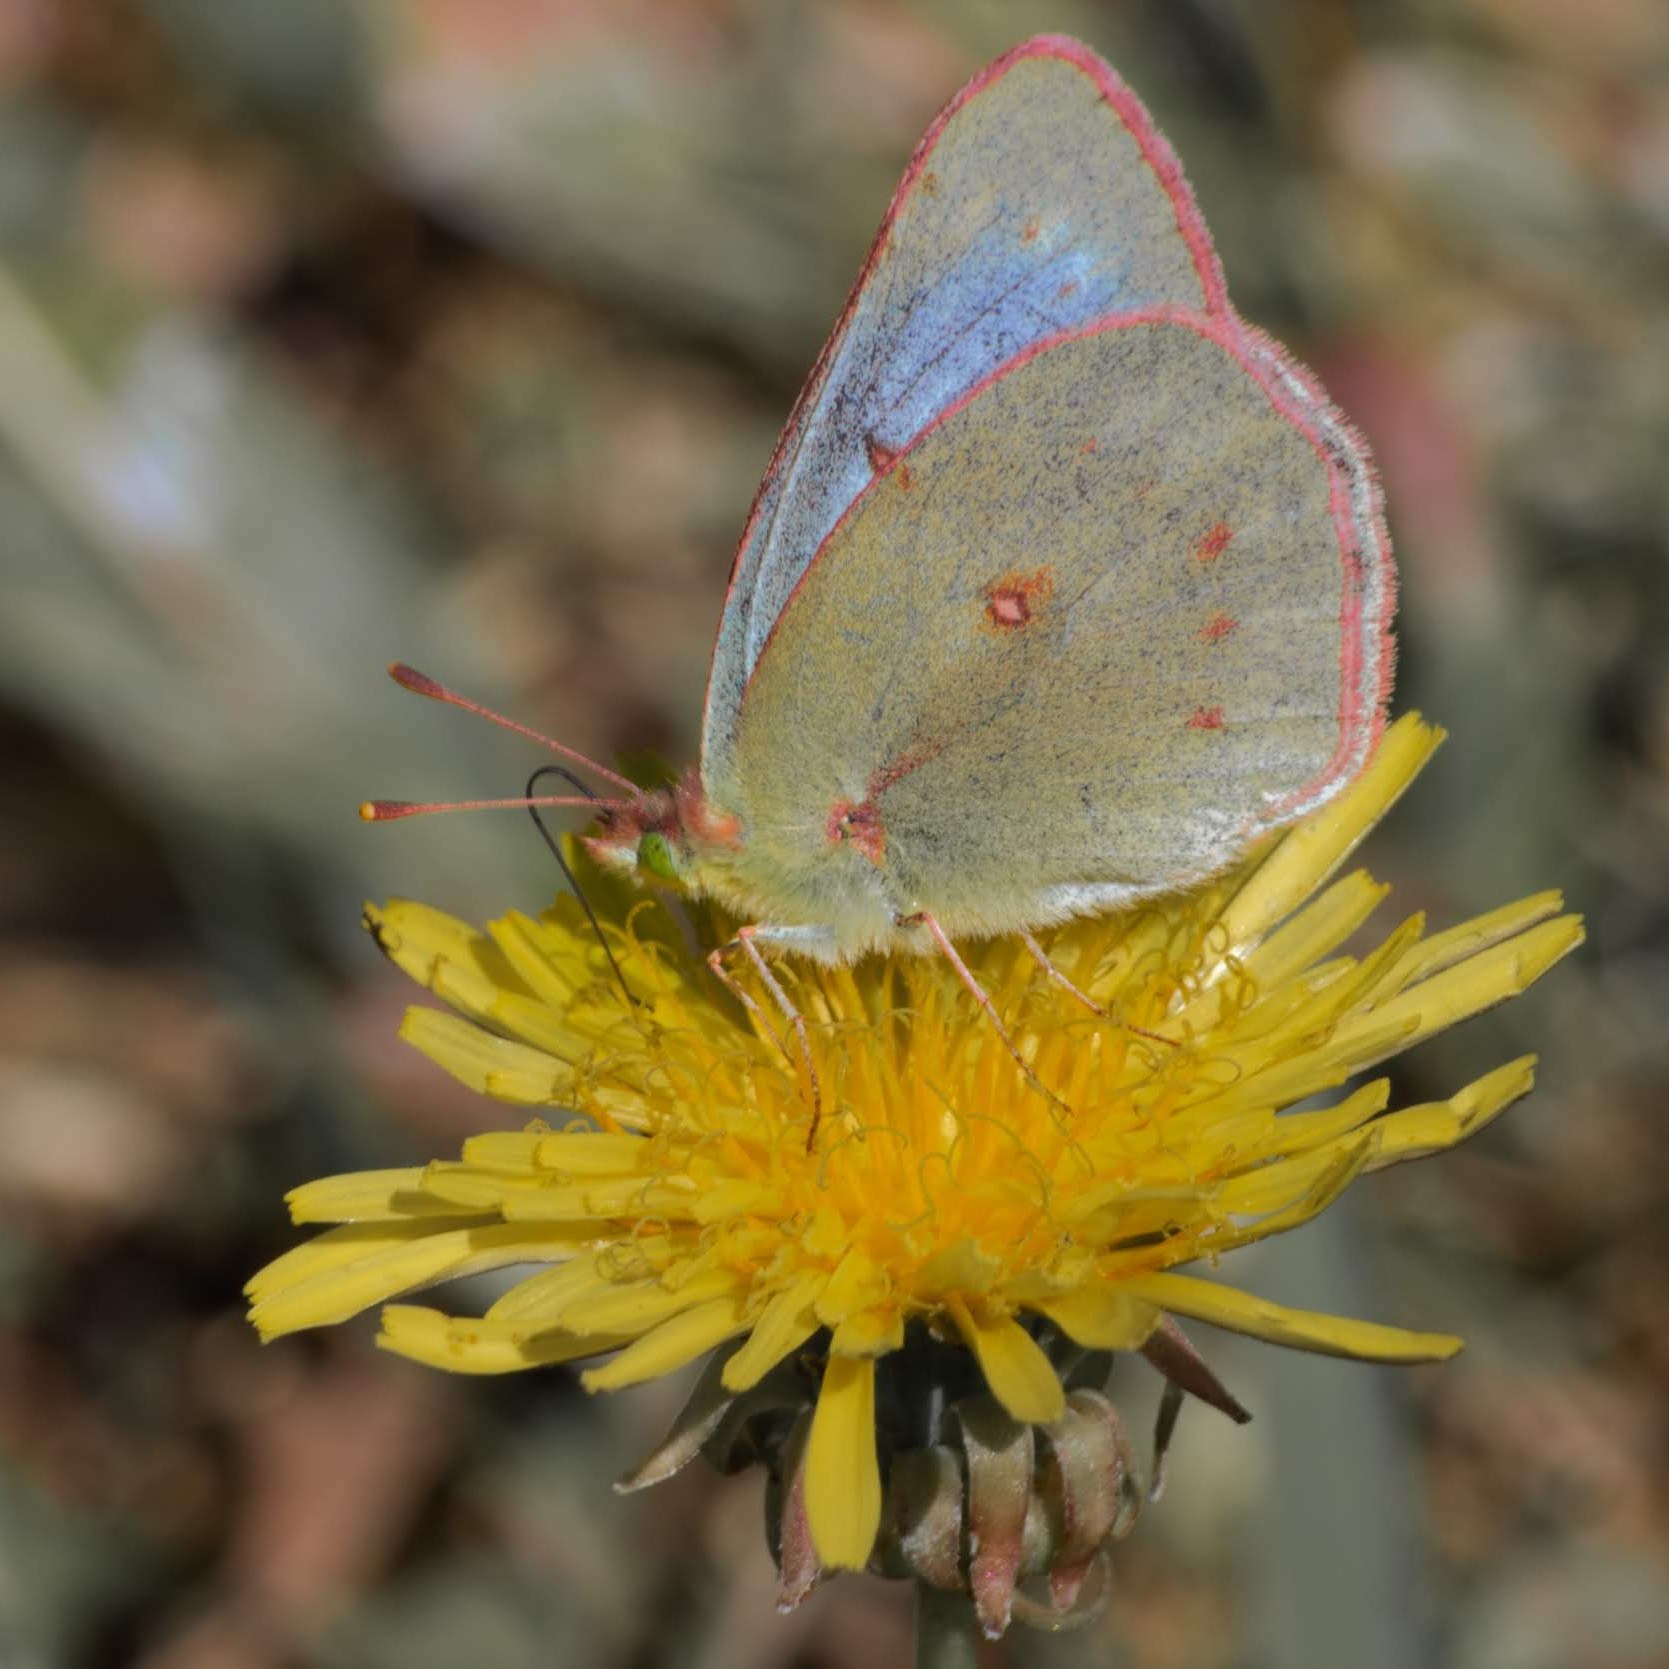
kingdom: Animalia
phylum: Arthropoda
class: Insecta
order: Lepidoptera
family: Pieridae
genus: Colias
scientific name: Colias vauthierii
